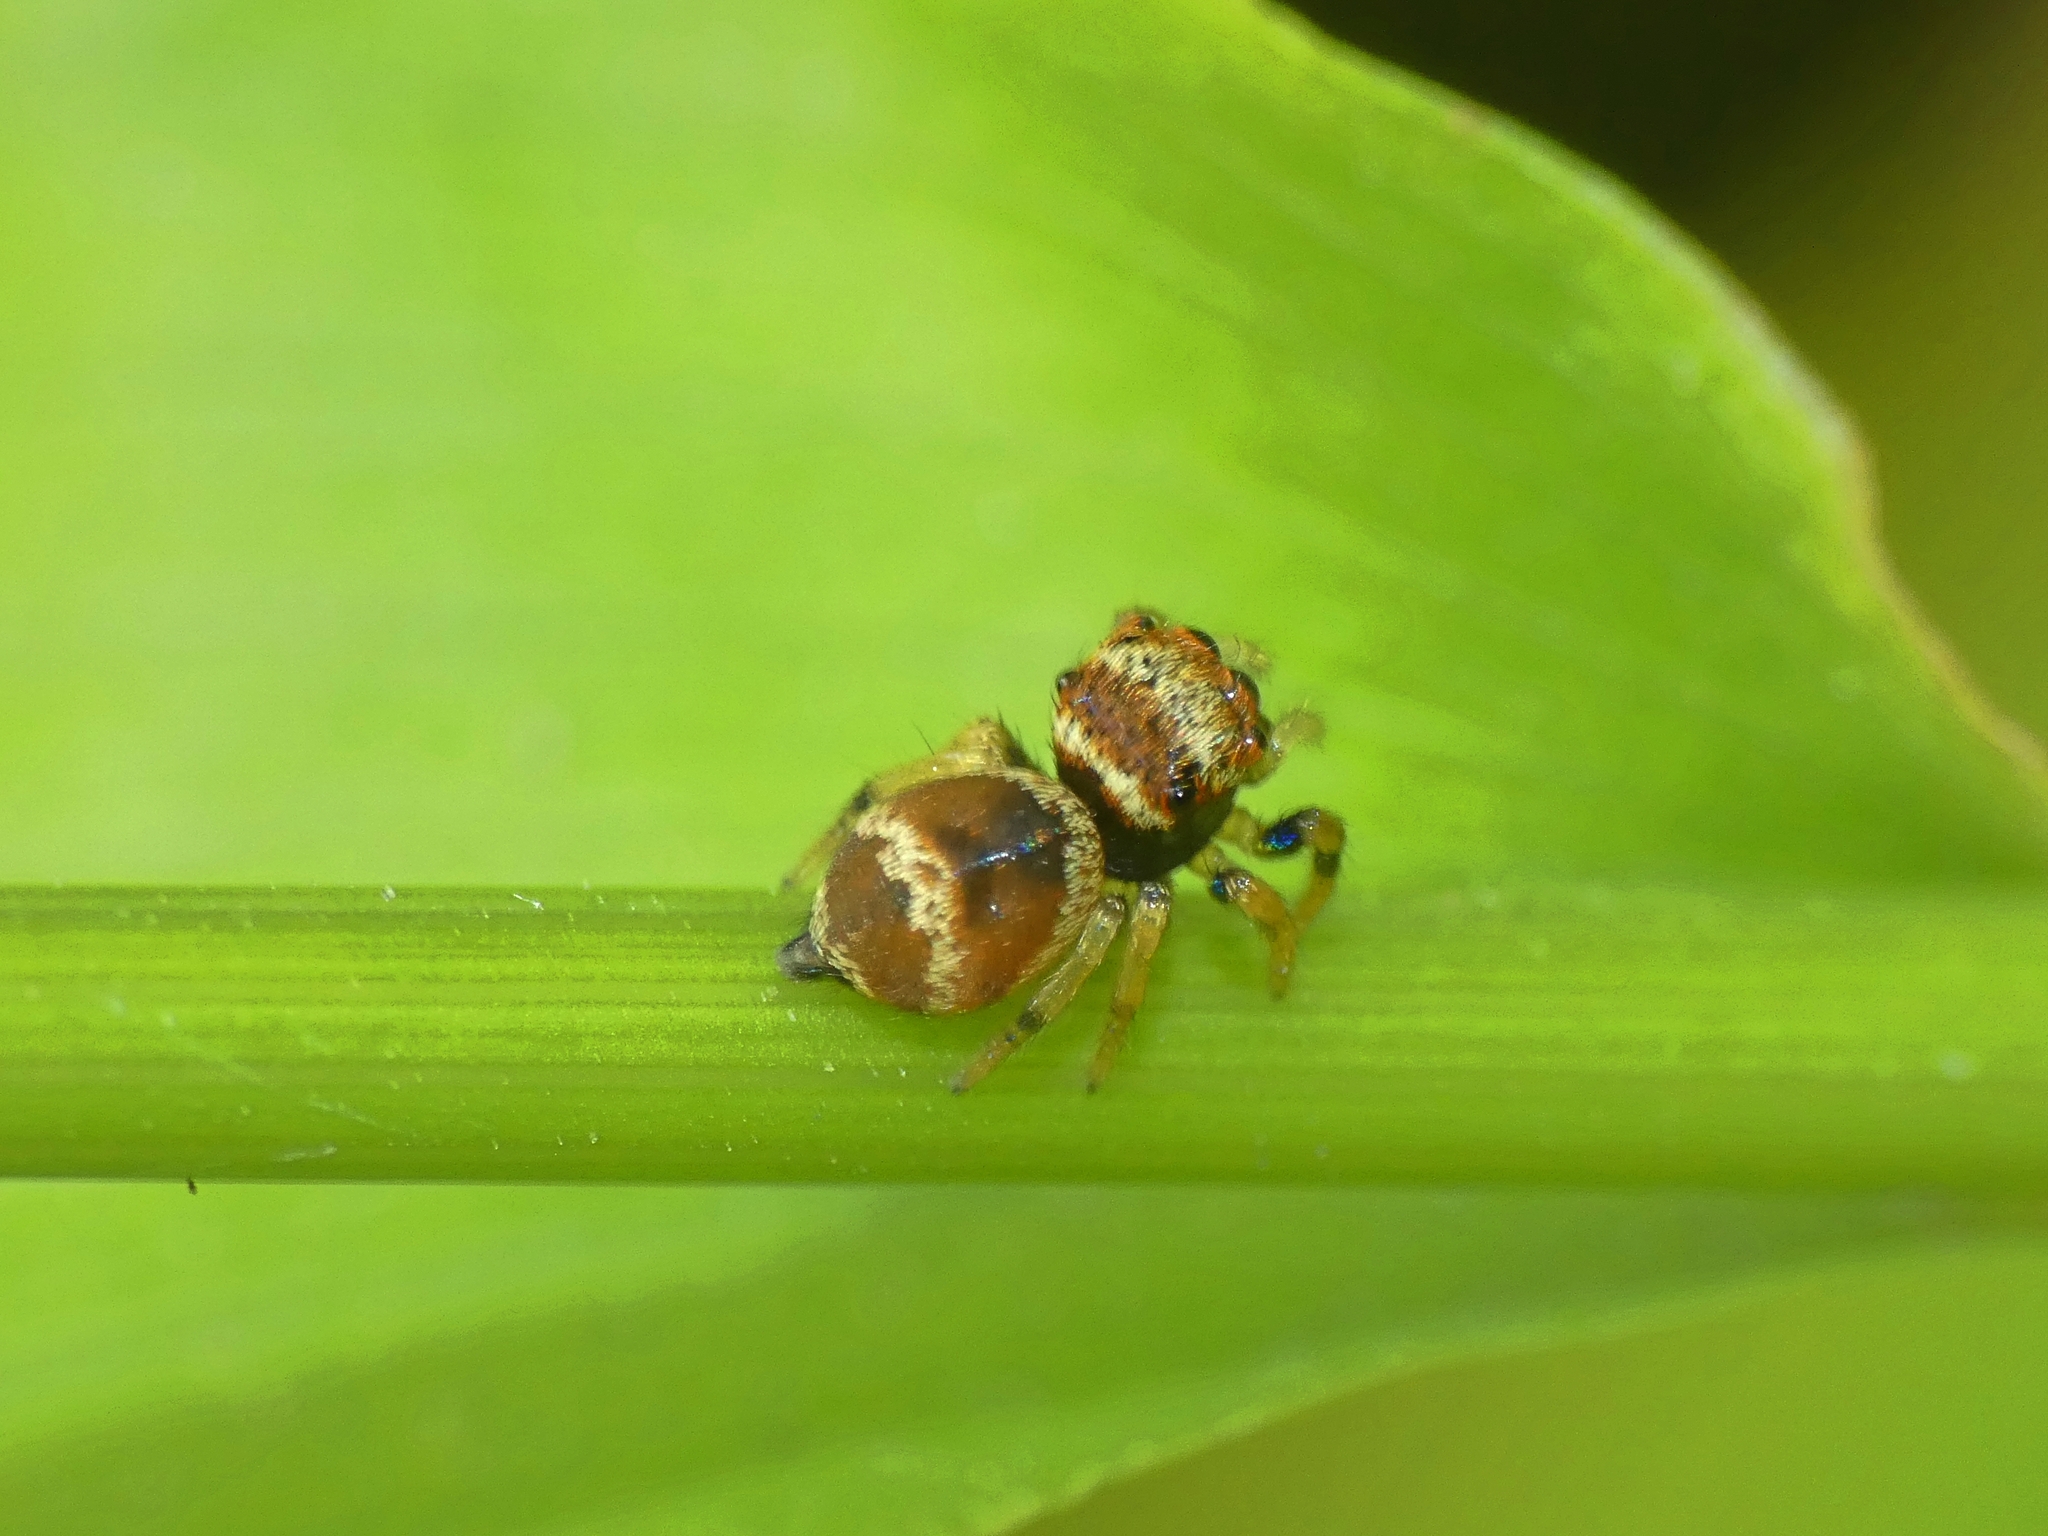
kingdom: Animalia
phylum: Arthropoda
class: Arachnida
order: Araneae
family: Salticidae
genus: Euryattus
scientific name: Euryattus bleekeri
